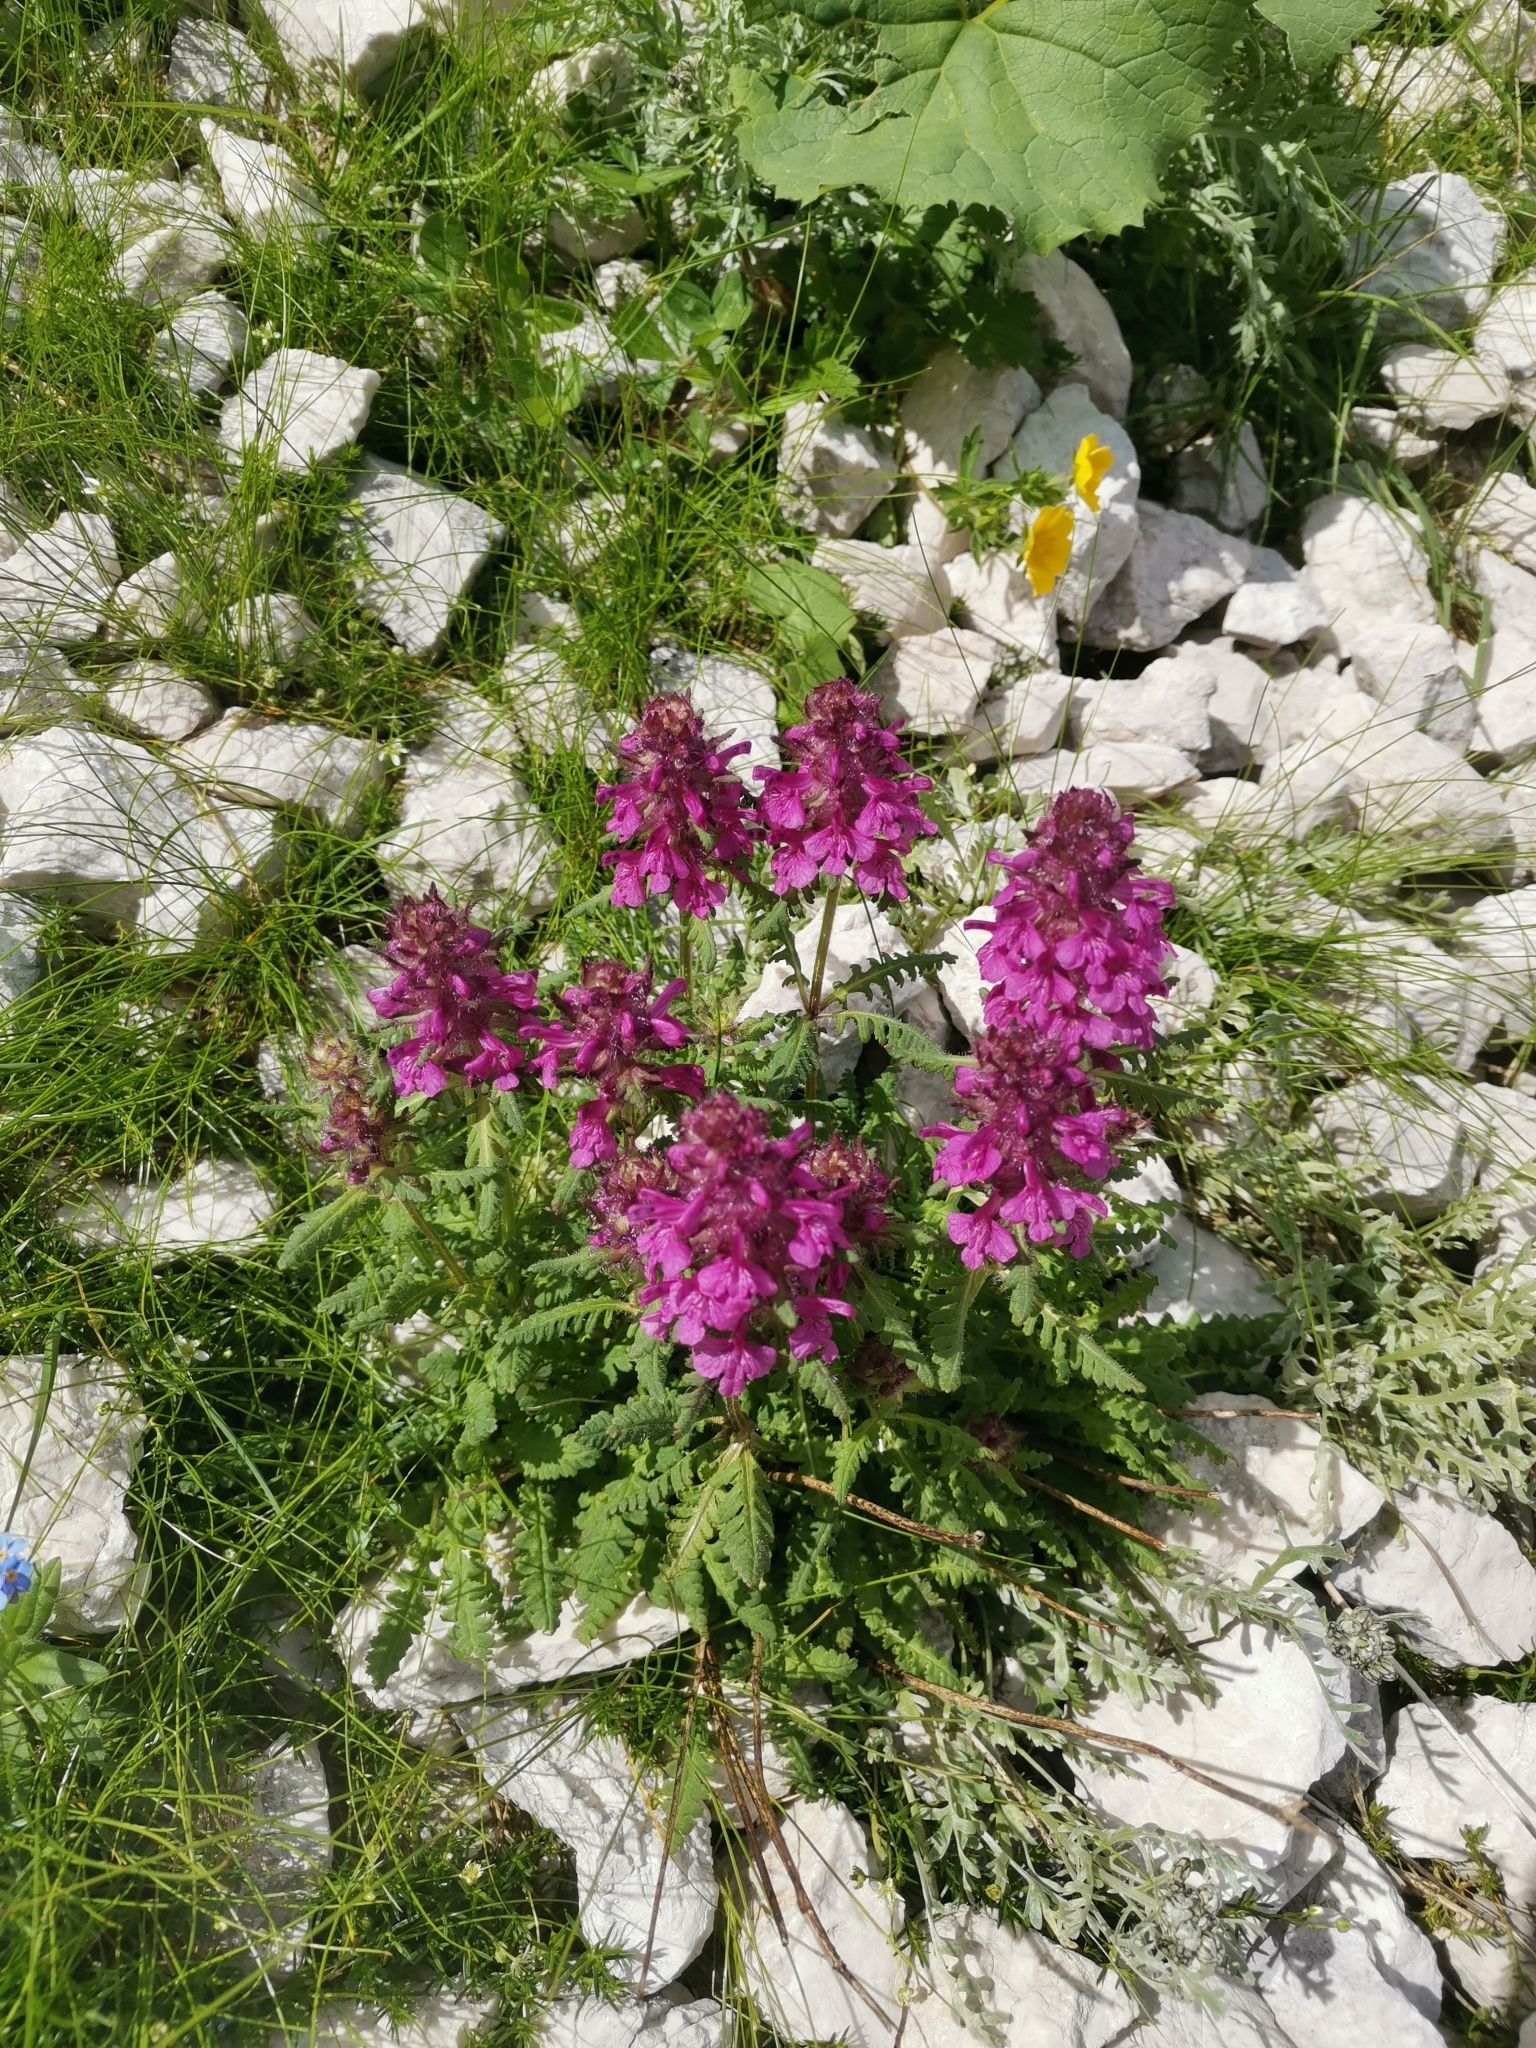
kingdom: Plantae
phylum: Tracheophyta
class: Magnoliopsida
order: Lamiales
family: Orobanchaceae
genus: Pedicularis
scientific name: Pedicularis verticillata
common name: Whorled lousewort
